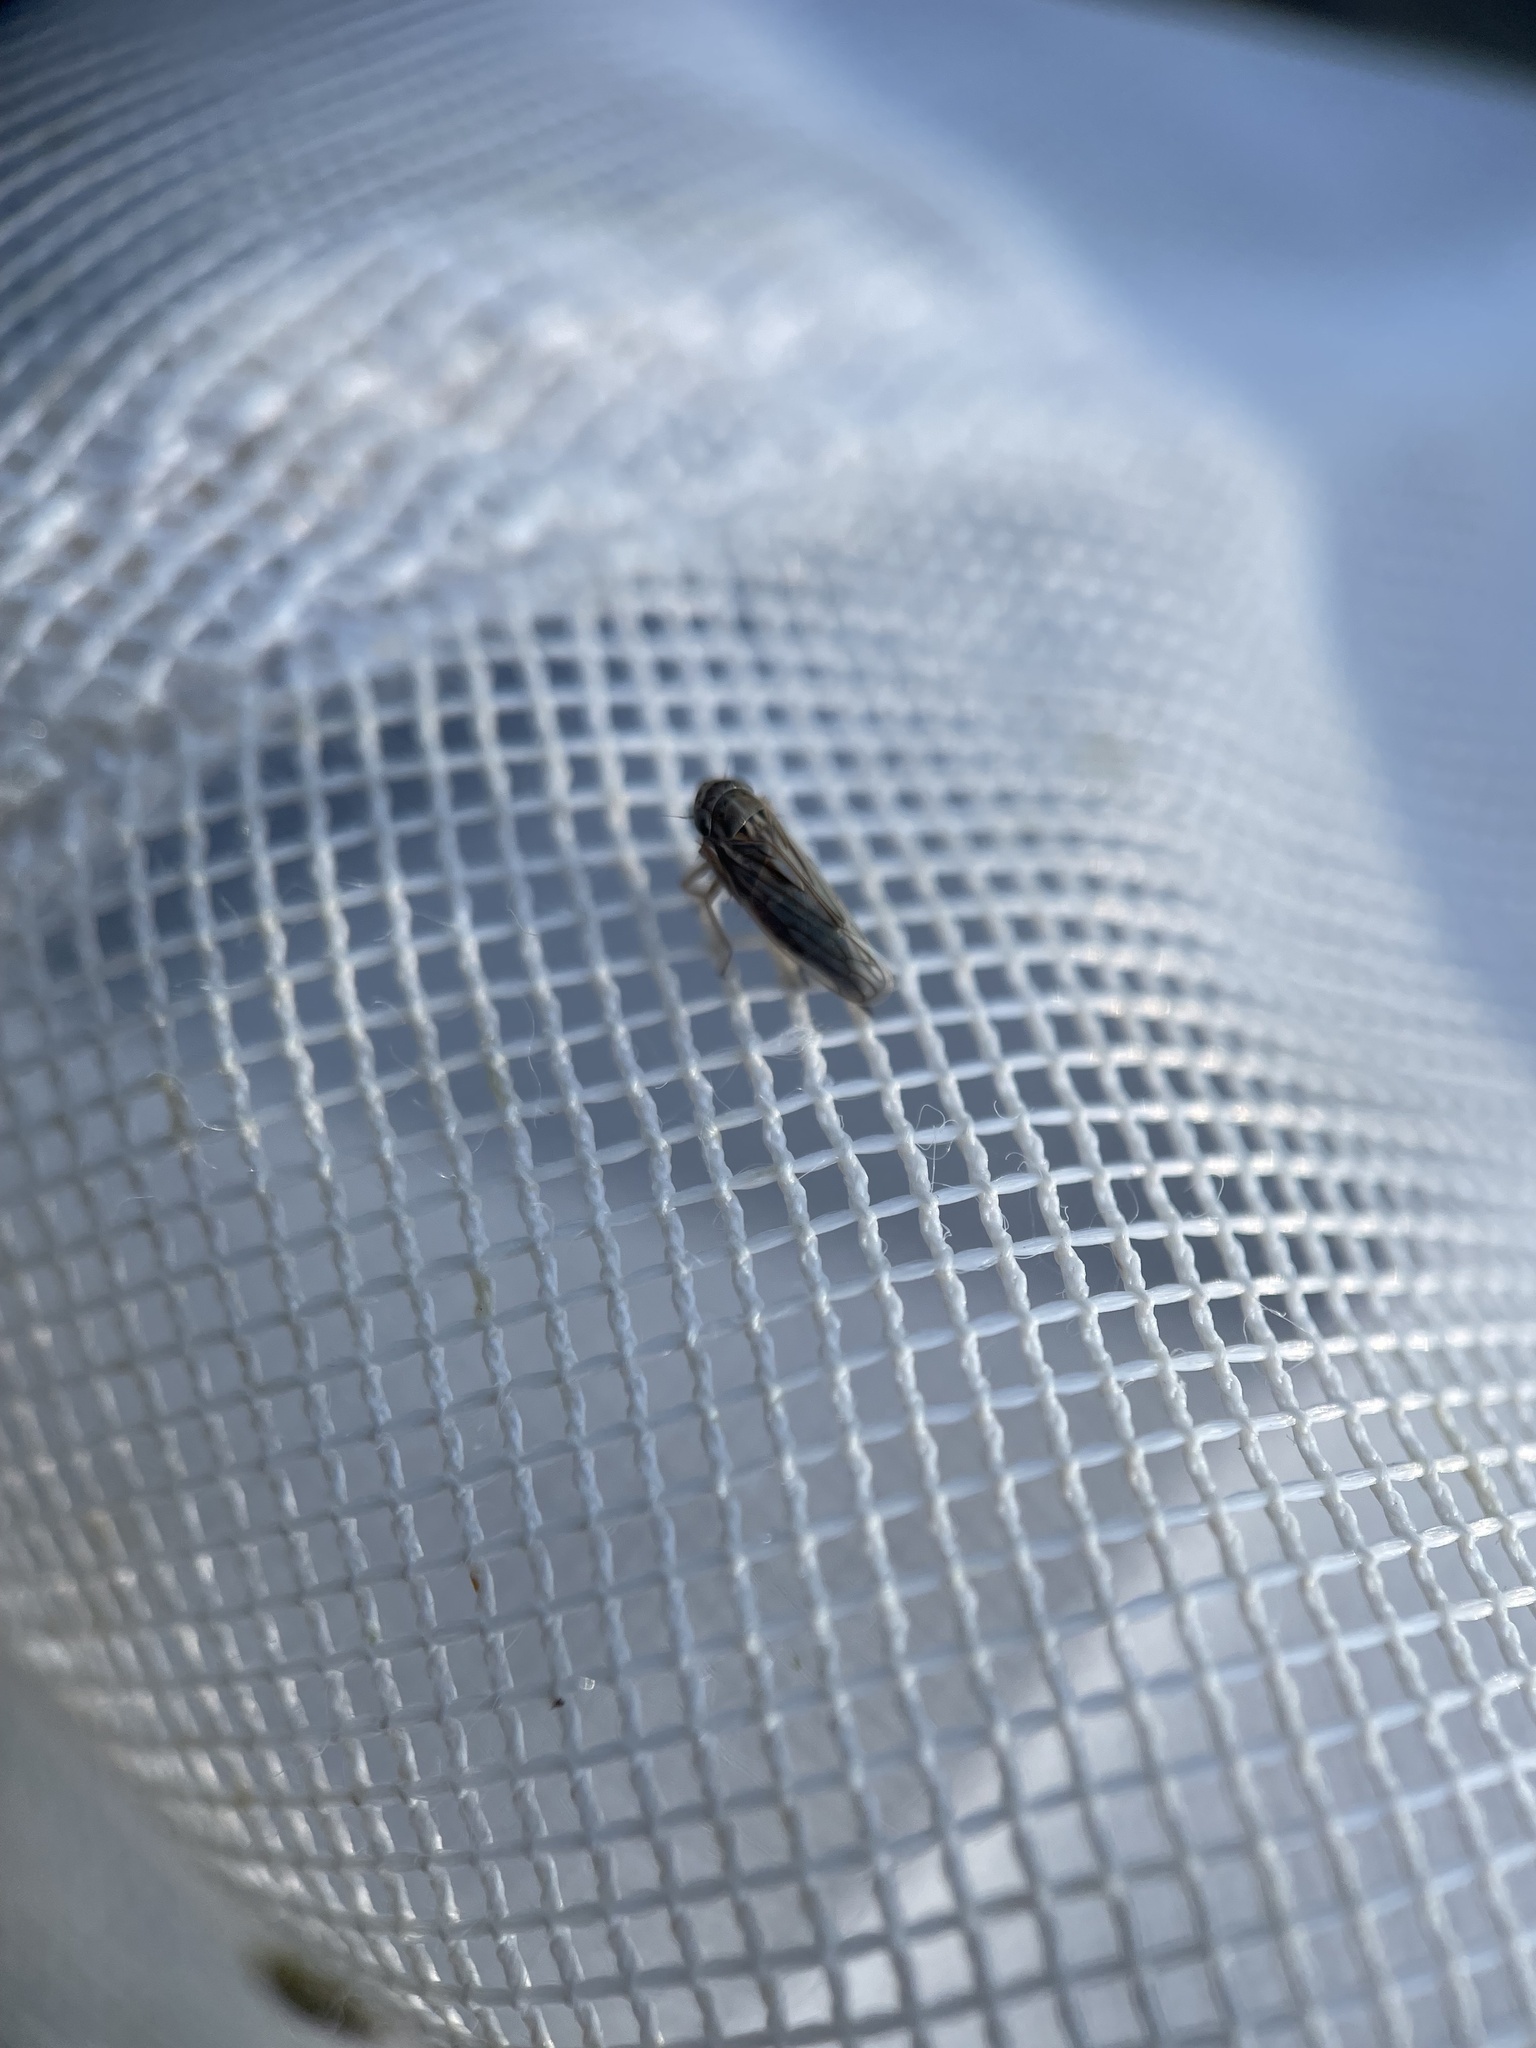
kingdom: Animalia
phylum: Arthropoda
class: Insecta
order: Hemiptera
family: Cicadellidae
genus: Exitianus
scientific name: Exitianus exitiosus
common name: Gray lawn leafhopper
